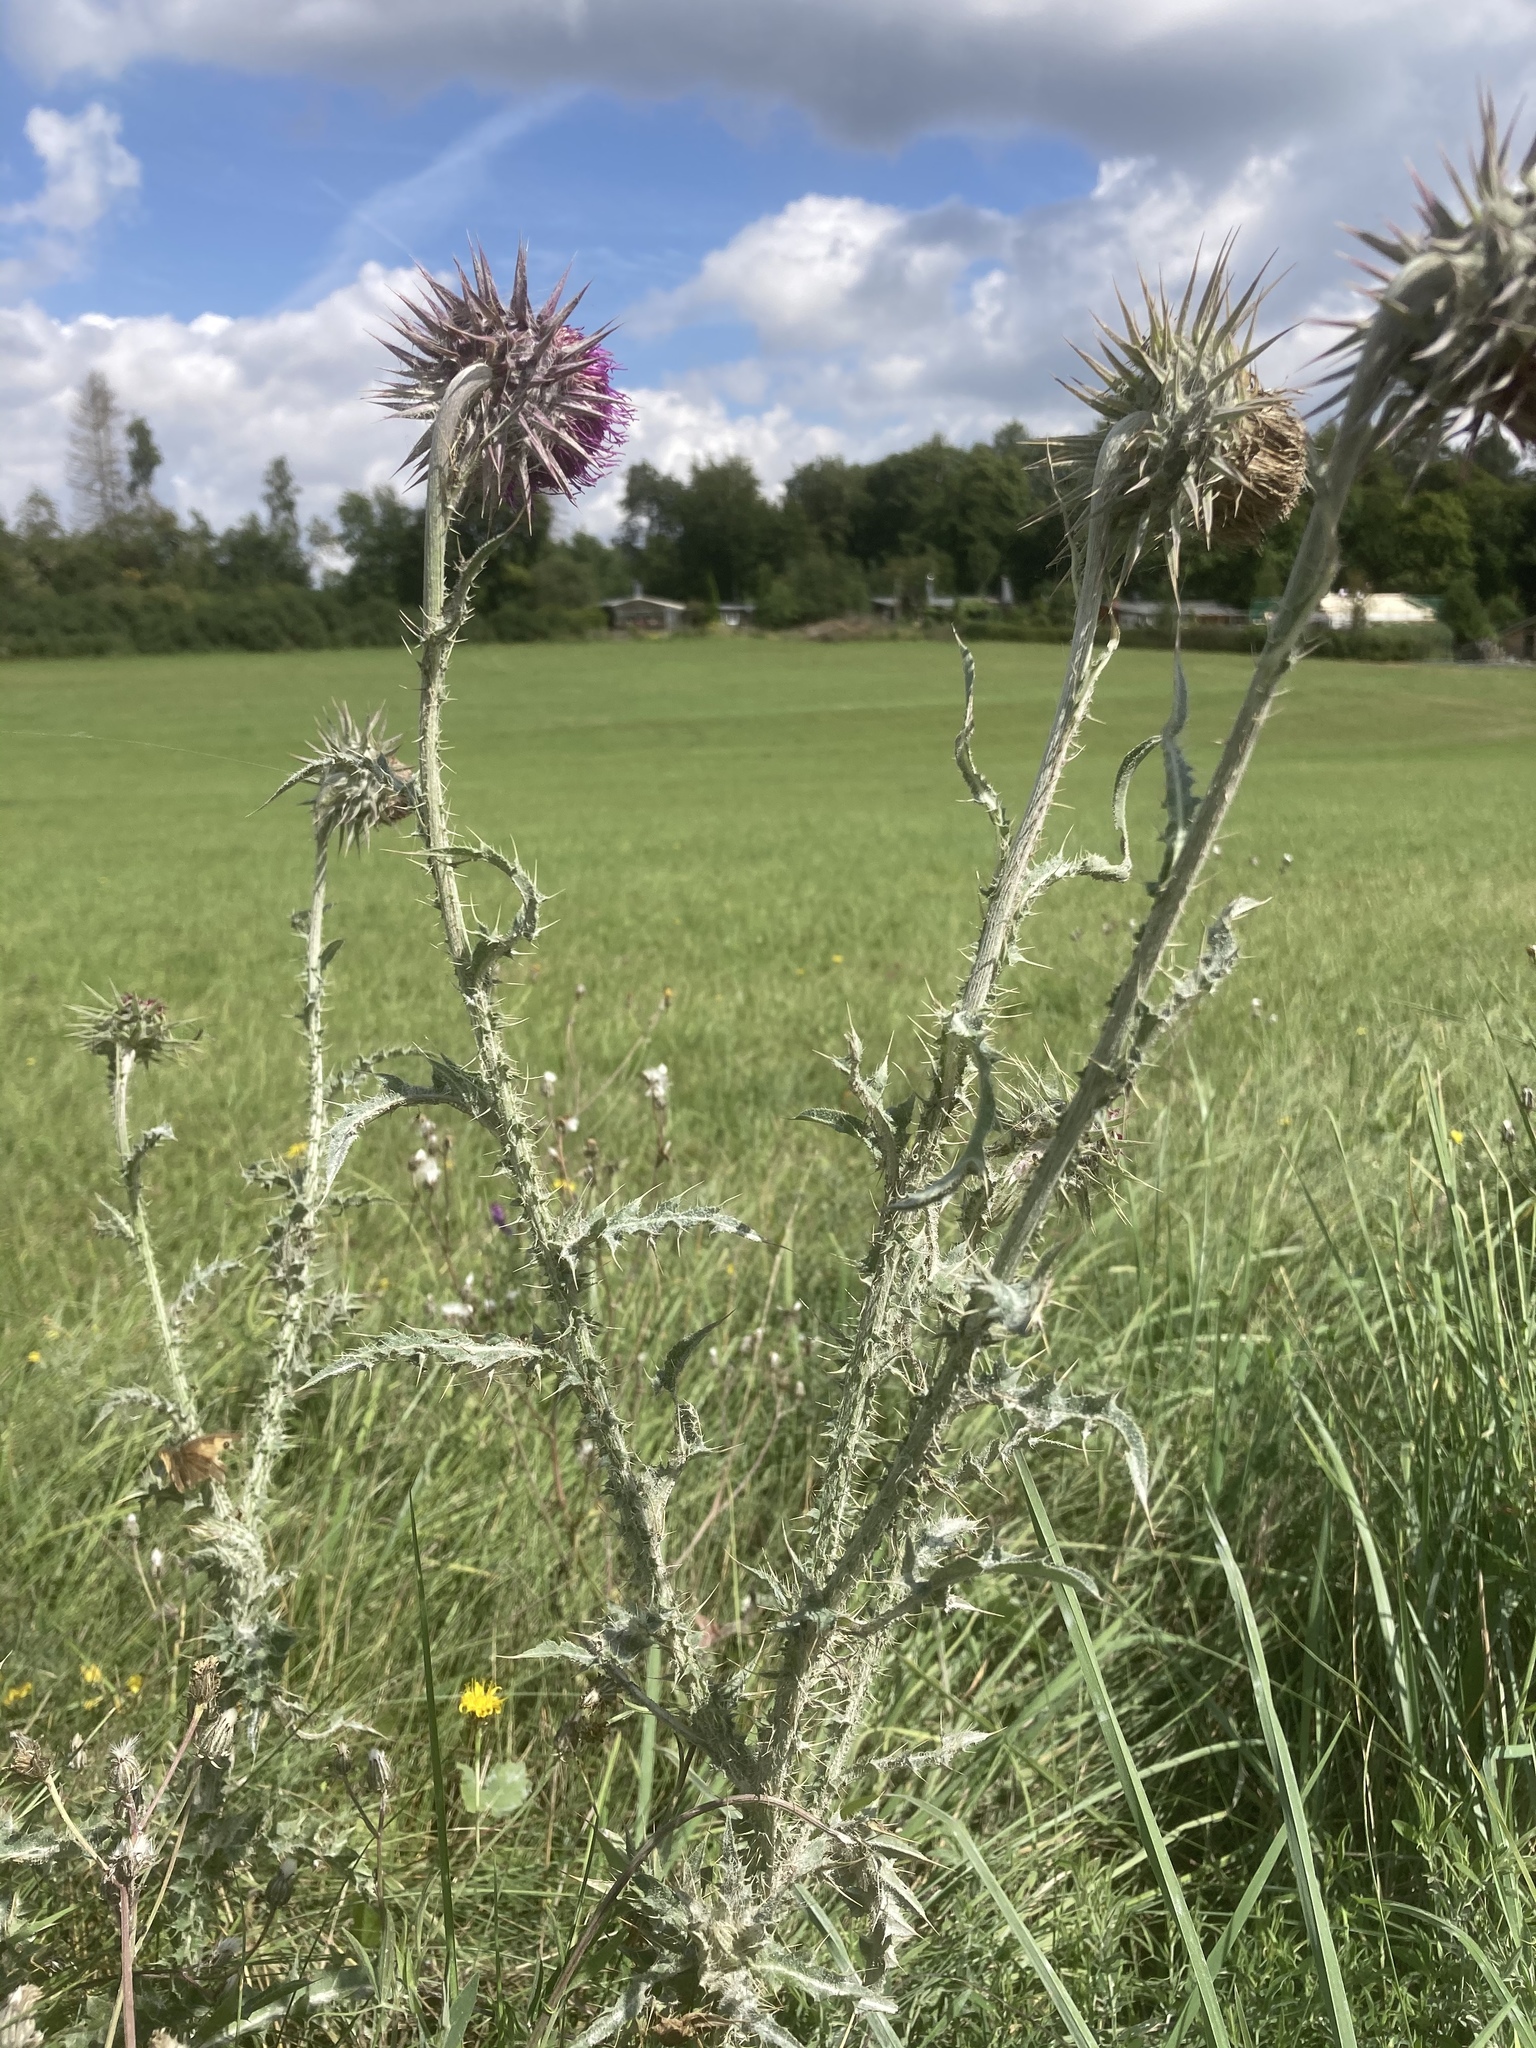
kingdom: Plantae
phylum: Tracheophyta
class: Magnoliopsida
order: Asterales
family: Asteraceae
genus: Carduus
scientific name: Carduus nutans
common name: Musk thistle
